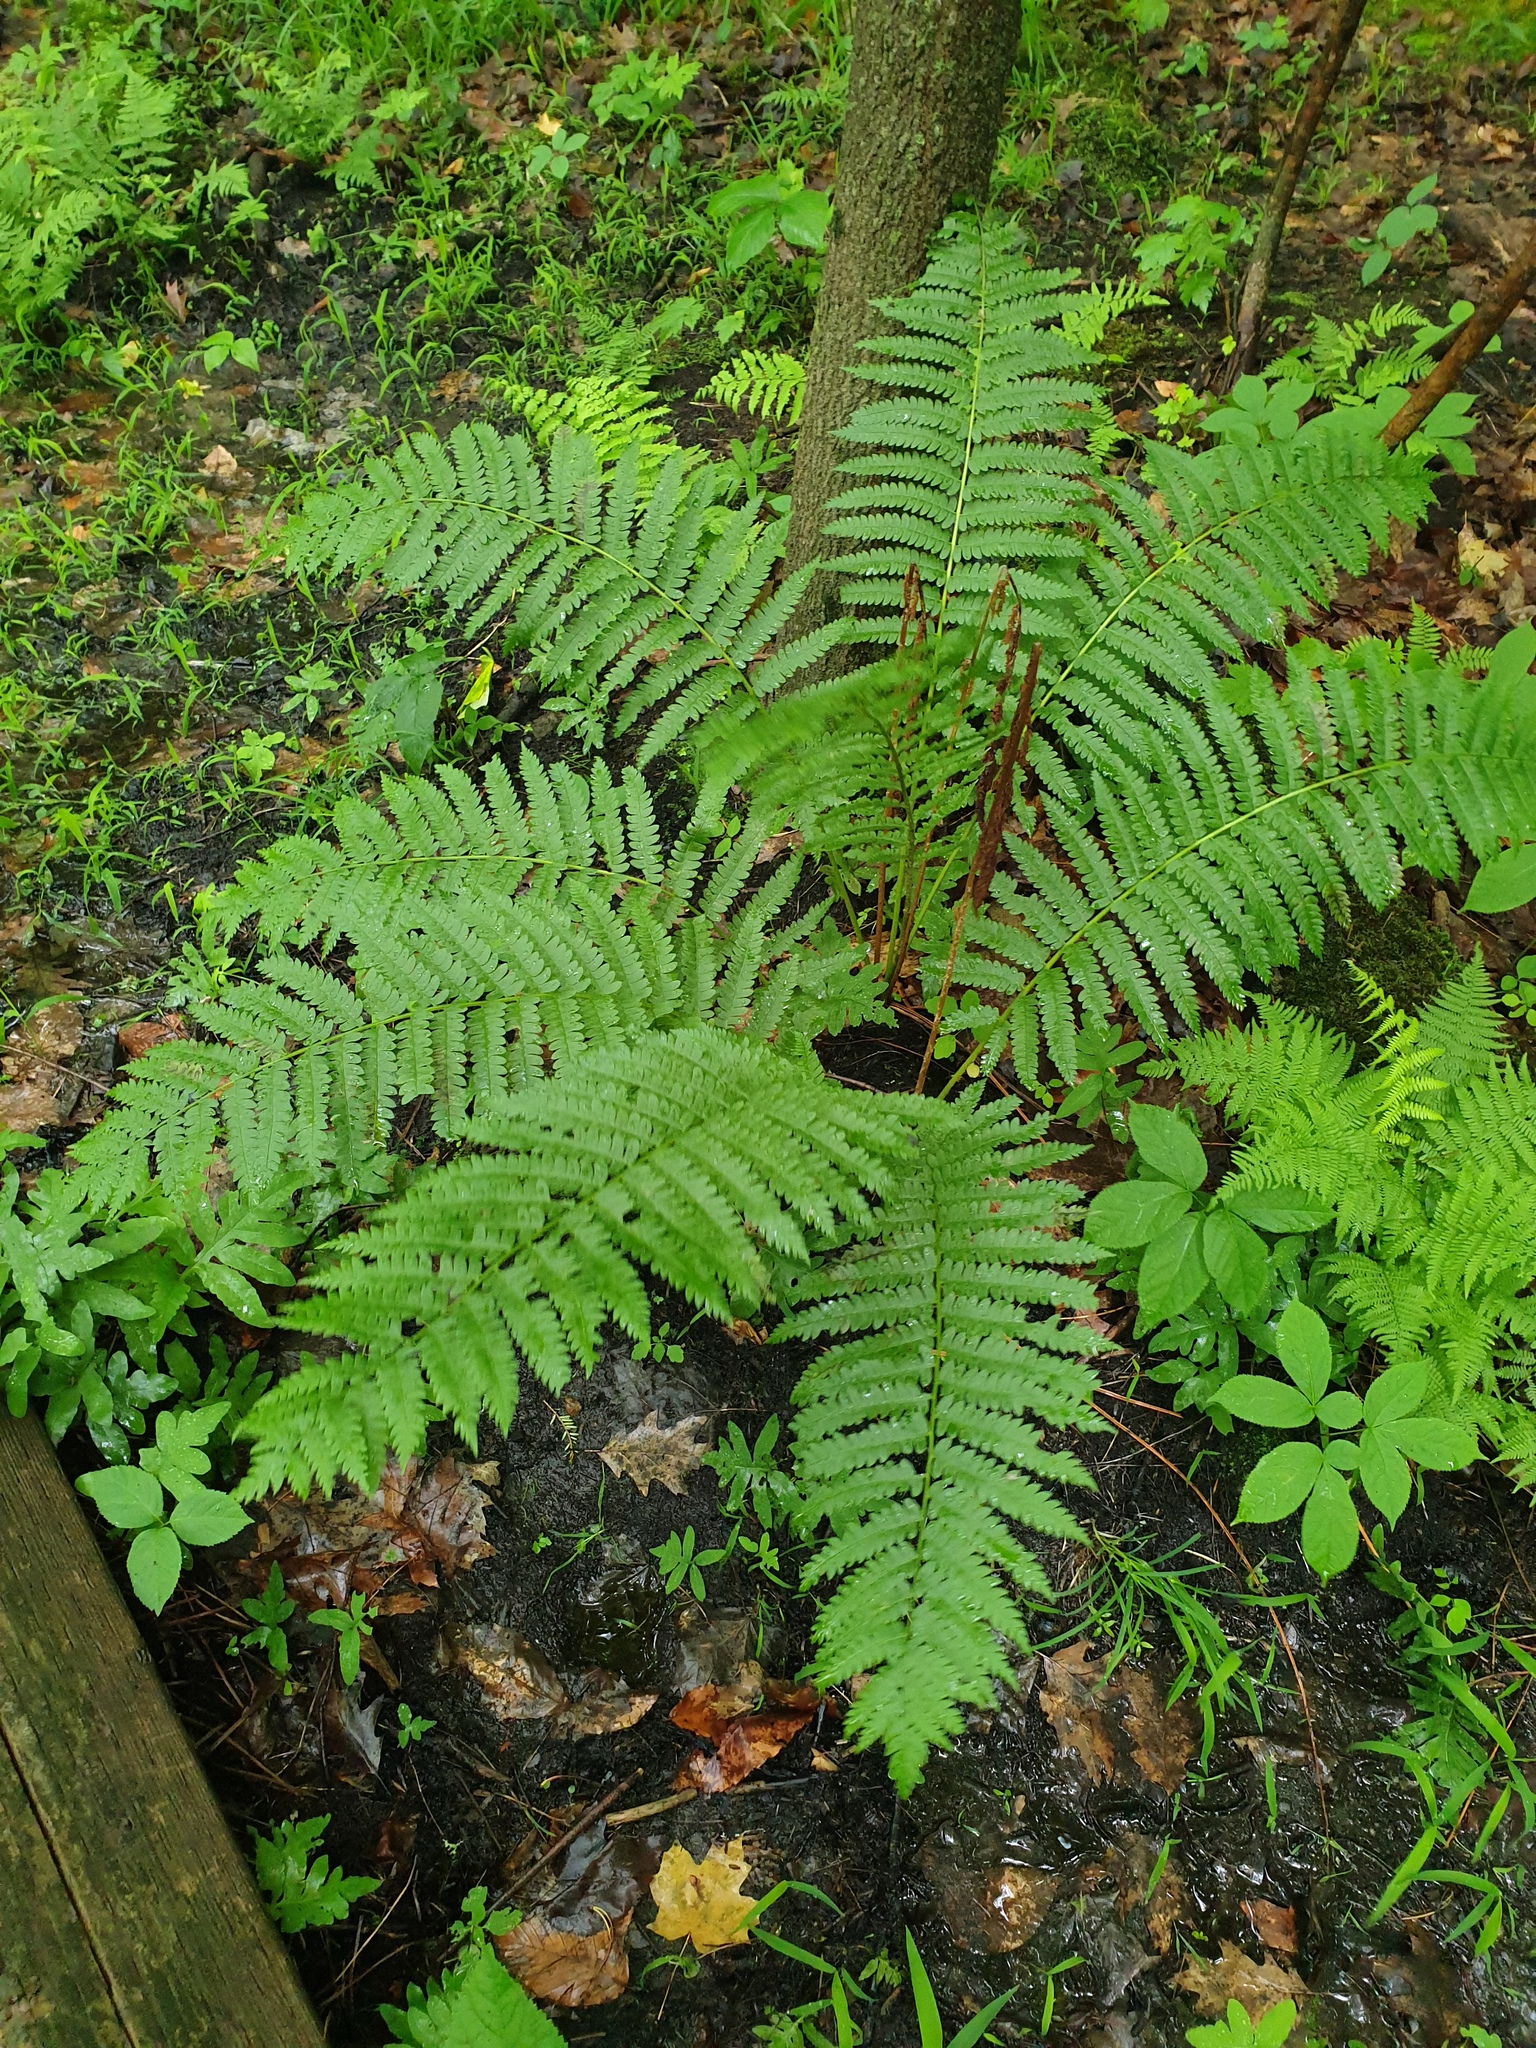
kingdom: Plantae
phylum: Tracheophyta
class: Polypodiopsida
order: Osmundales
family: Osmundaceae
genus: Osmundastrum
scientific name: Osmundastrum cinnamomeum
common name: Cinnamon fern
